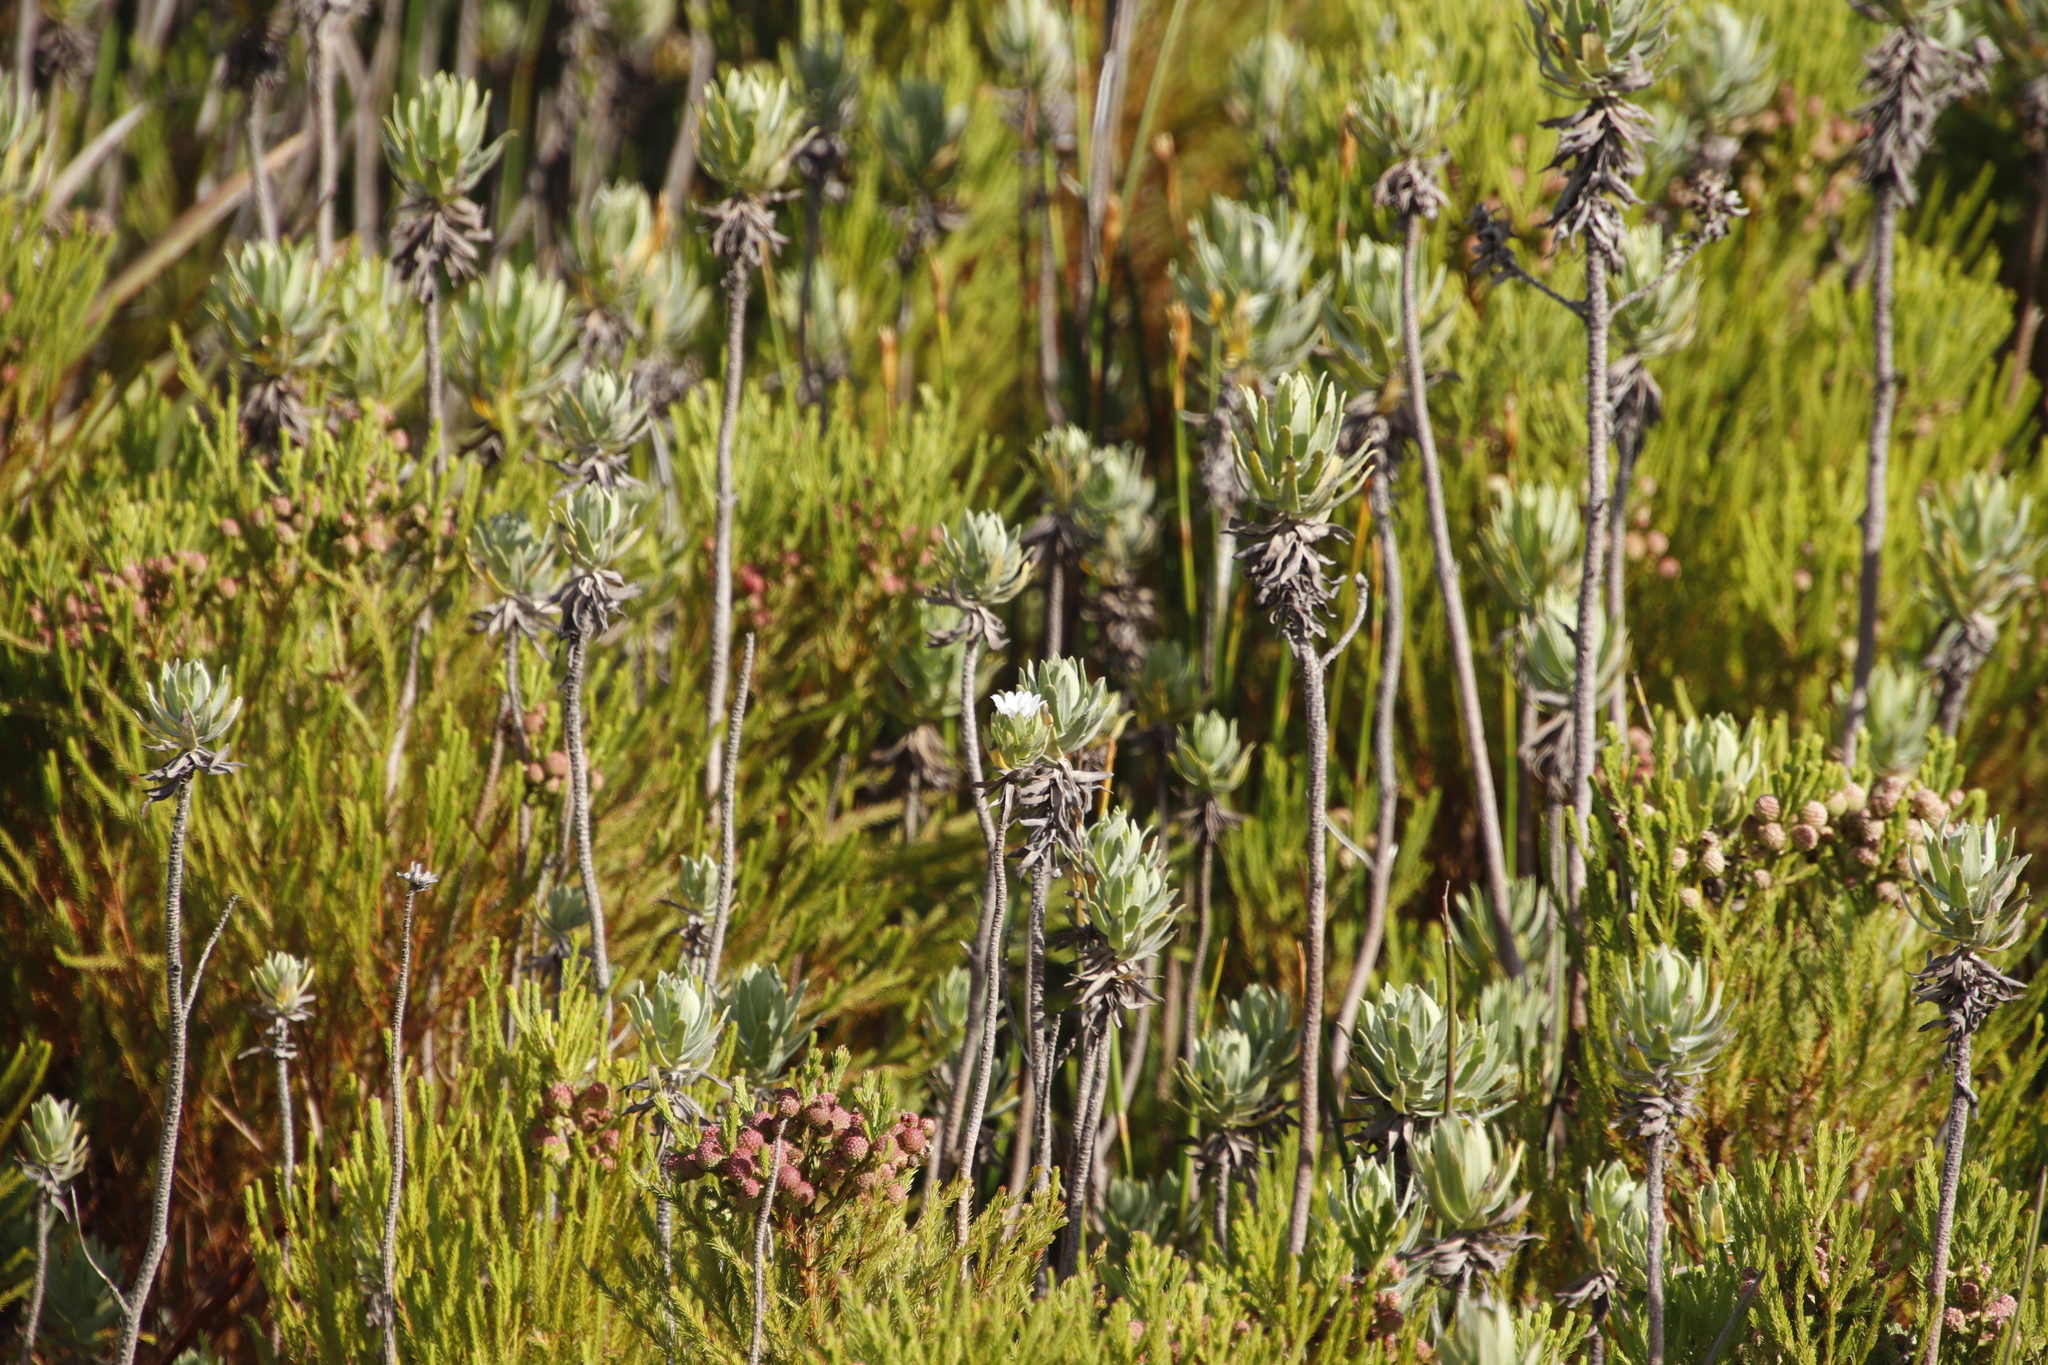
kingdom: Plantae
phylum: Tracheophyta
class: Magnoliopsida
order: Asterales
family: Asteraceae
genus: Osmitopsis
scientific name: Osmitopsis asteriscoides
